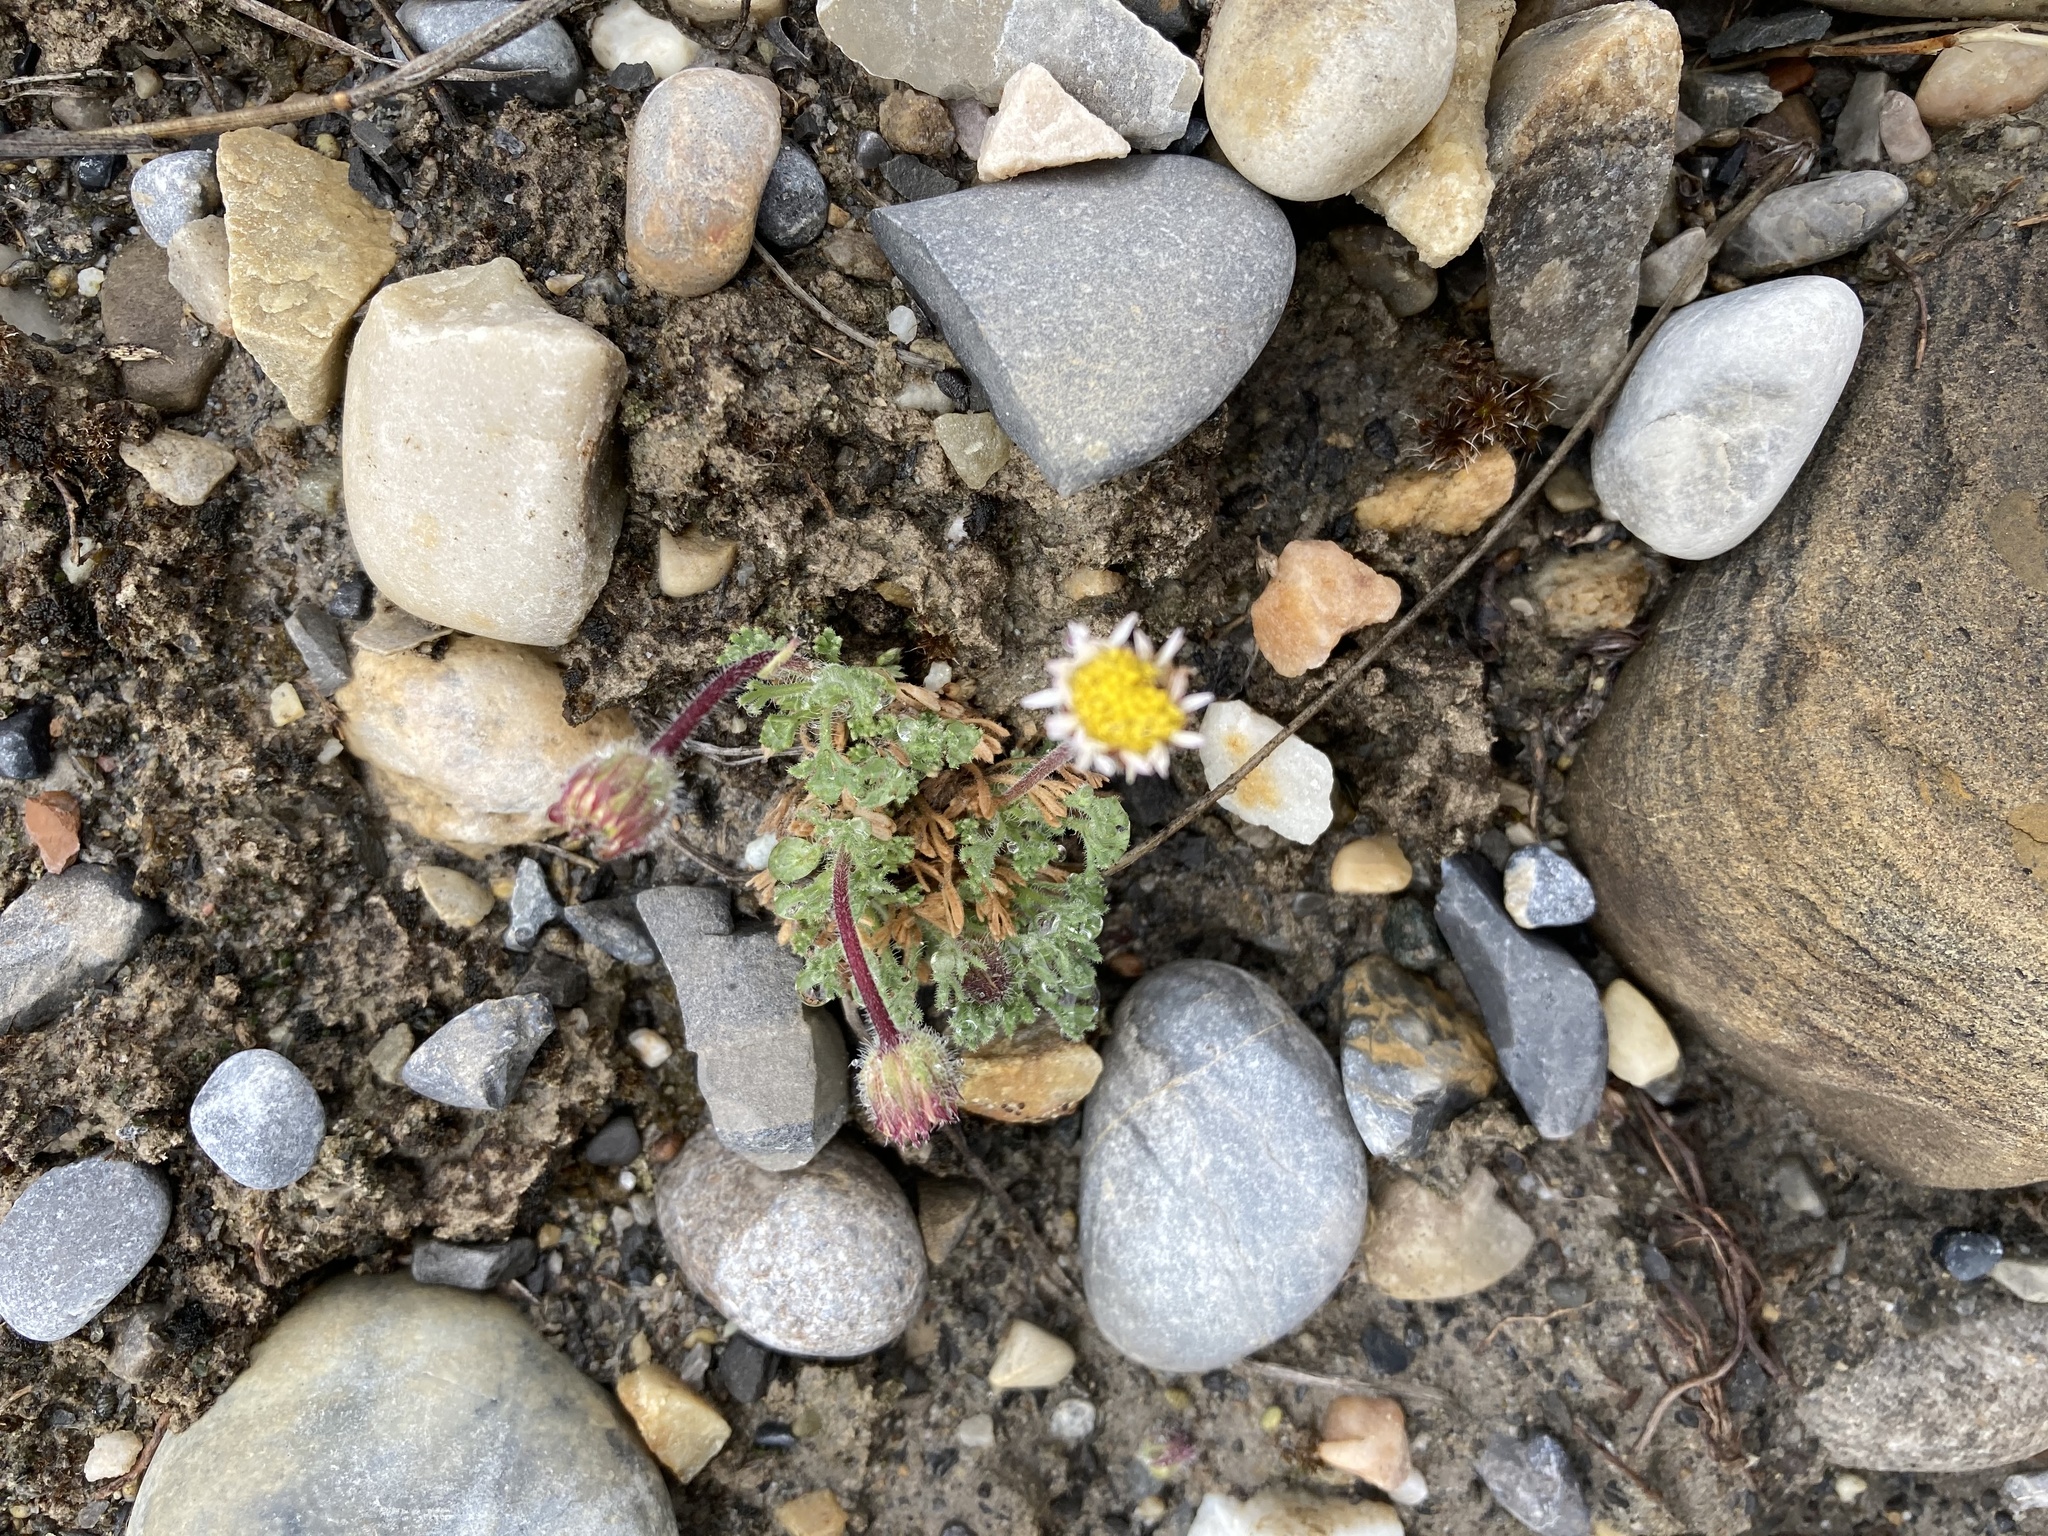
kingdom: Plantae
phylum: Tracheophyta
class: Magnoliopsida
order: Asterales
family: Asteraceae
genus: Erigeron
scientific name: Erigeron compositus
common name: Dwarf mountain fleabane
